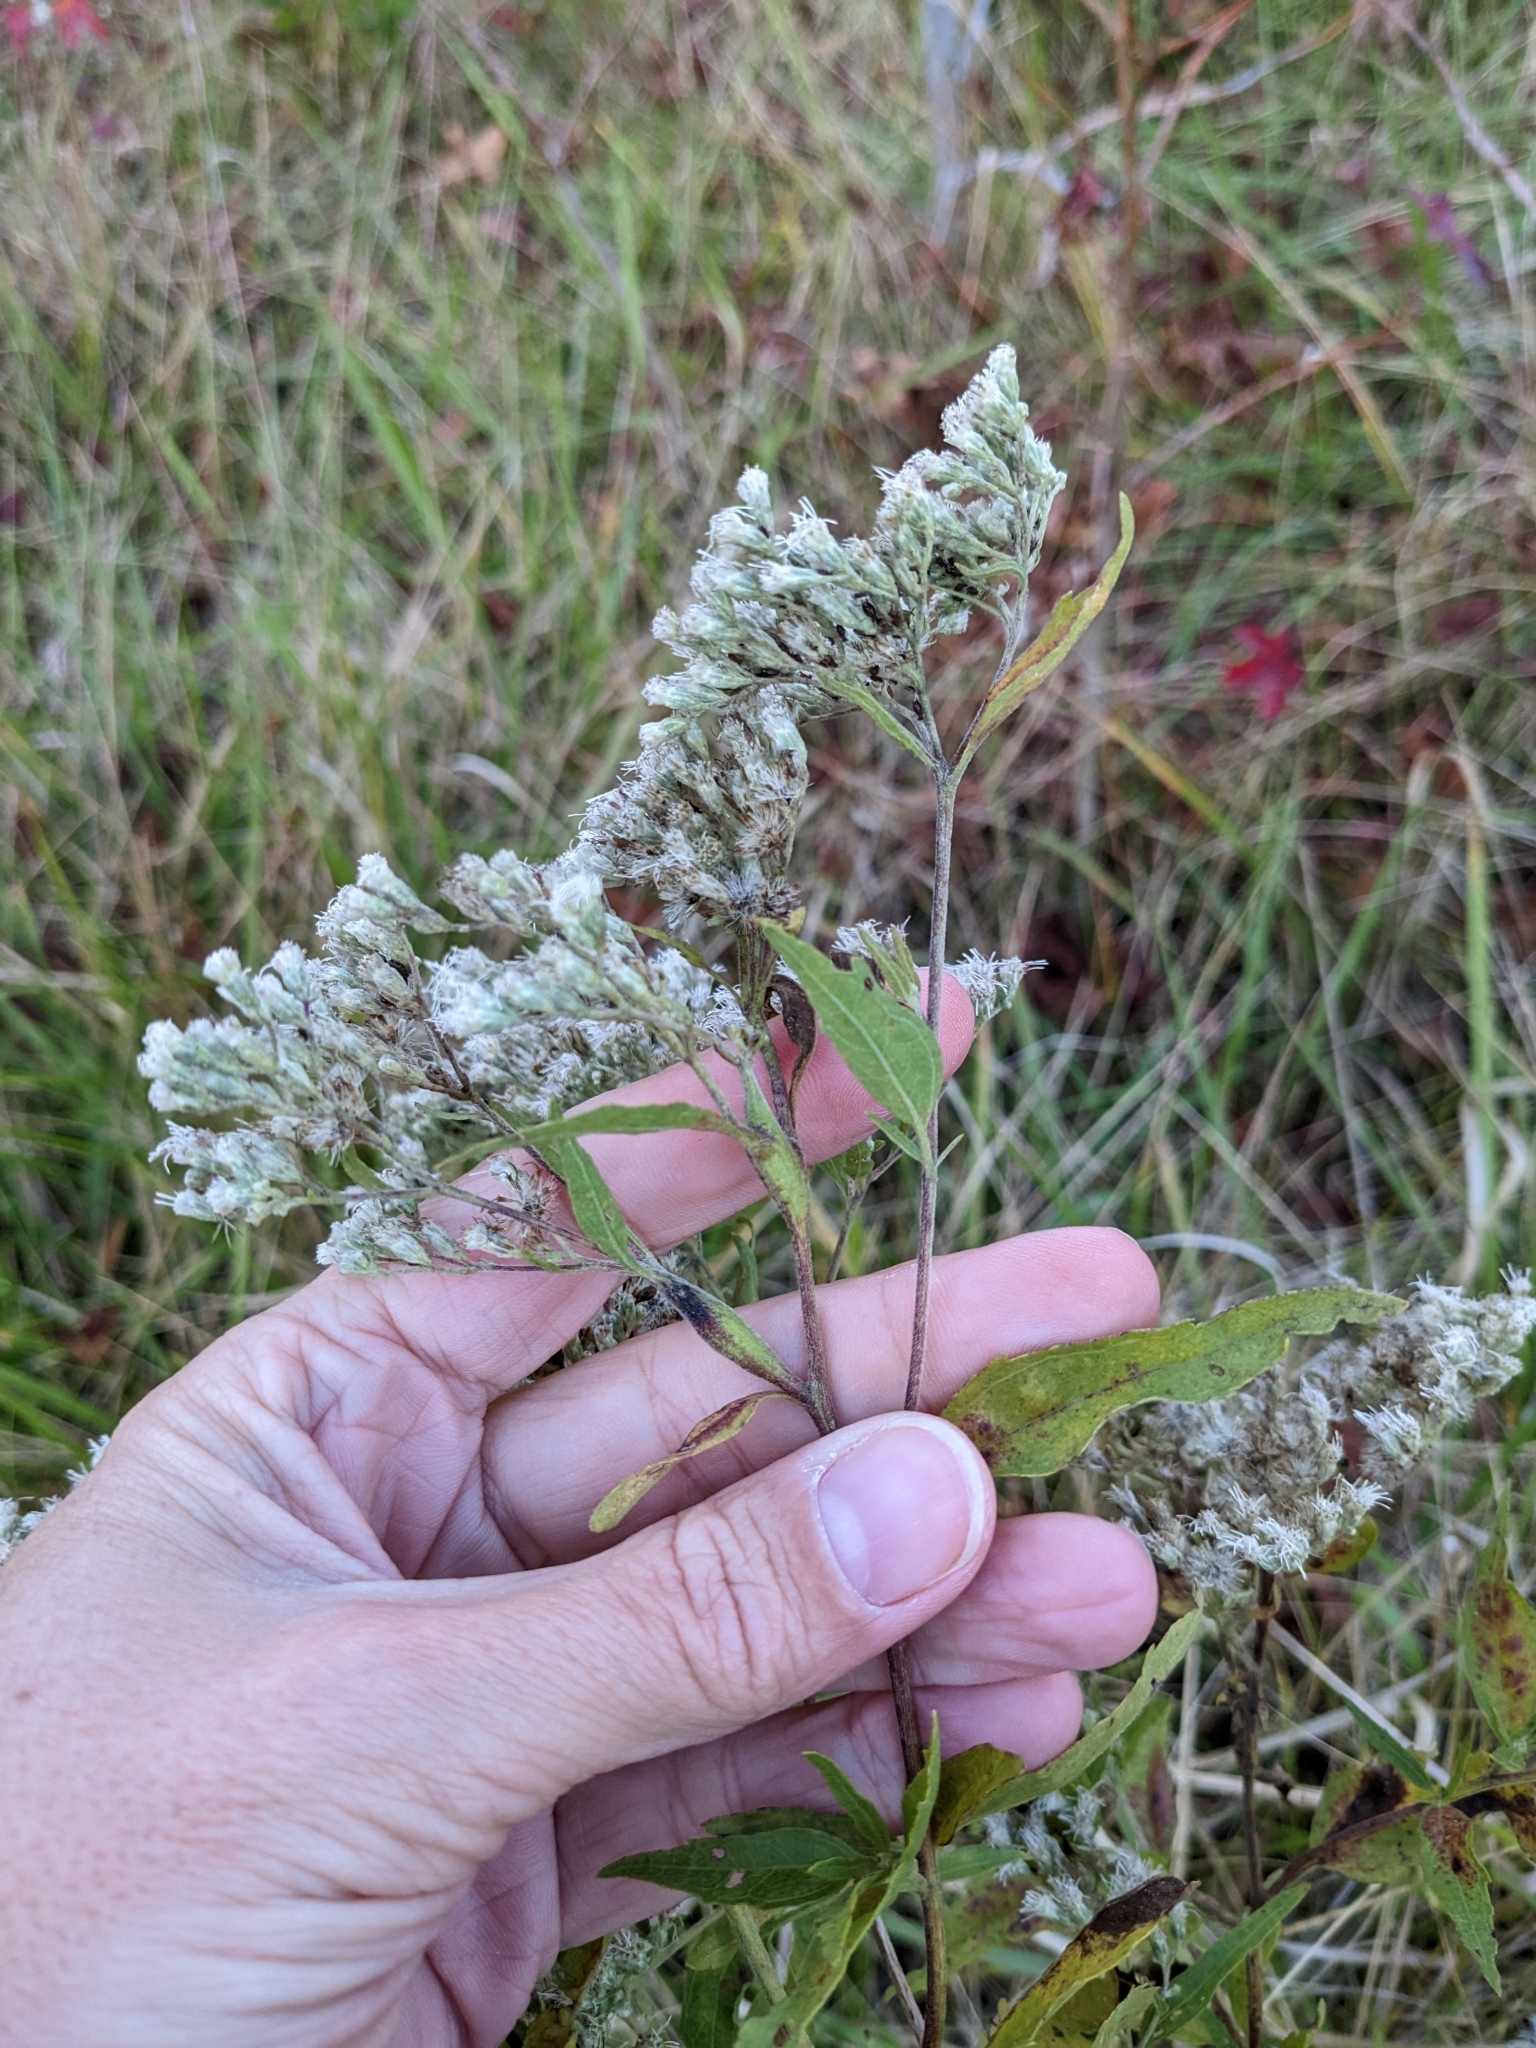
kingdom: Animalia
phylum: Arthropoda
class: Insecta
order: Diptera
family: Cecidomyiidae
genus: Neolasioptera
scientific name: Neolasioptera perfoliata
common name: Boneset stem midge
